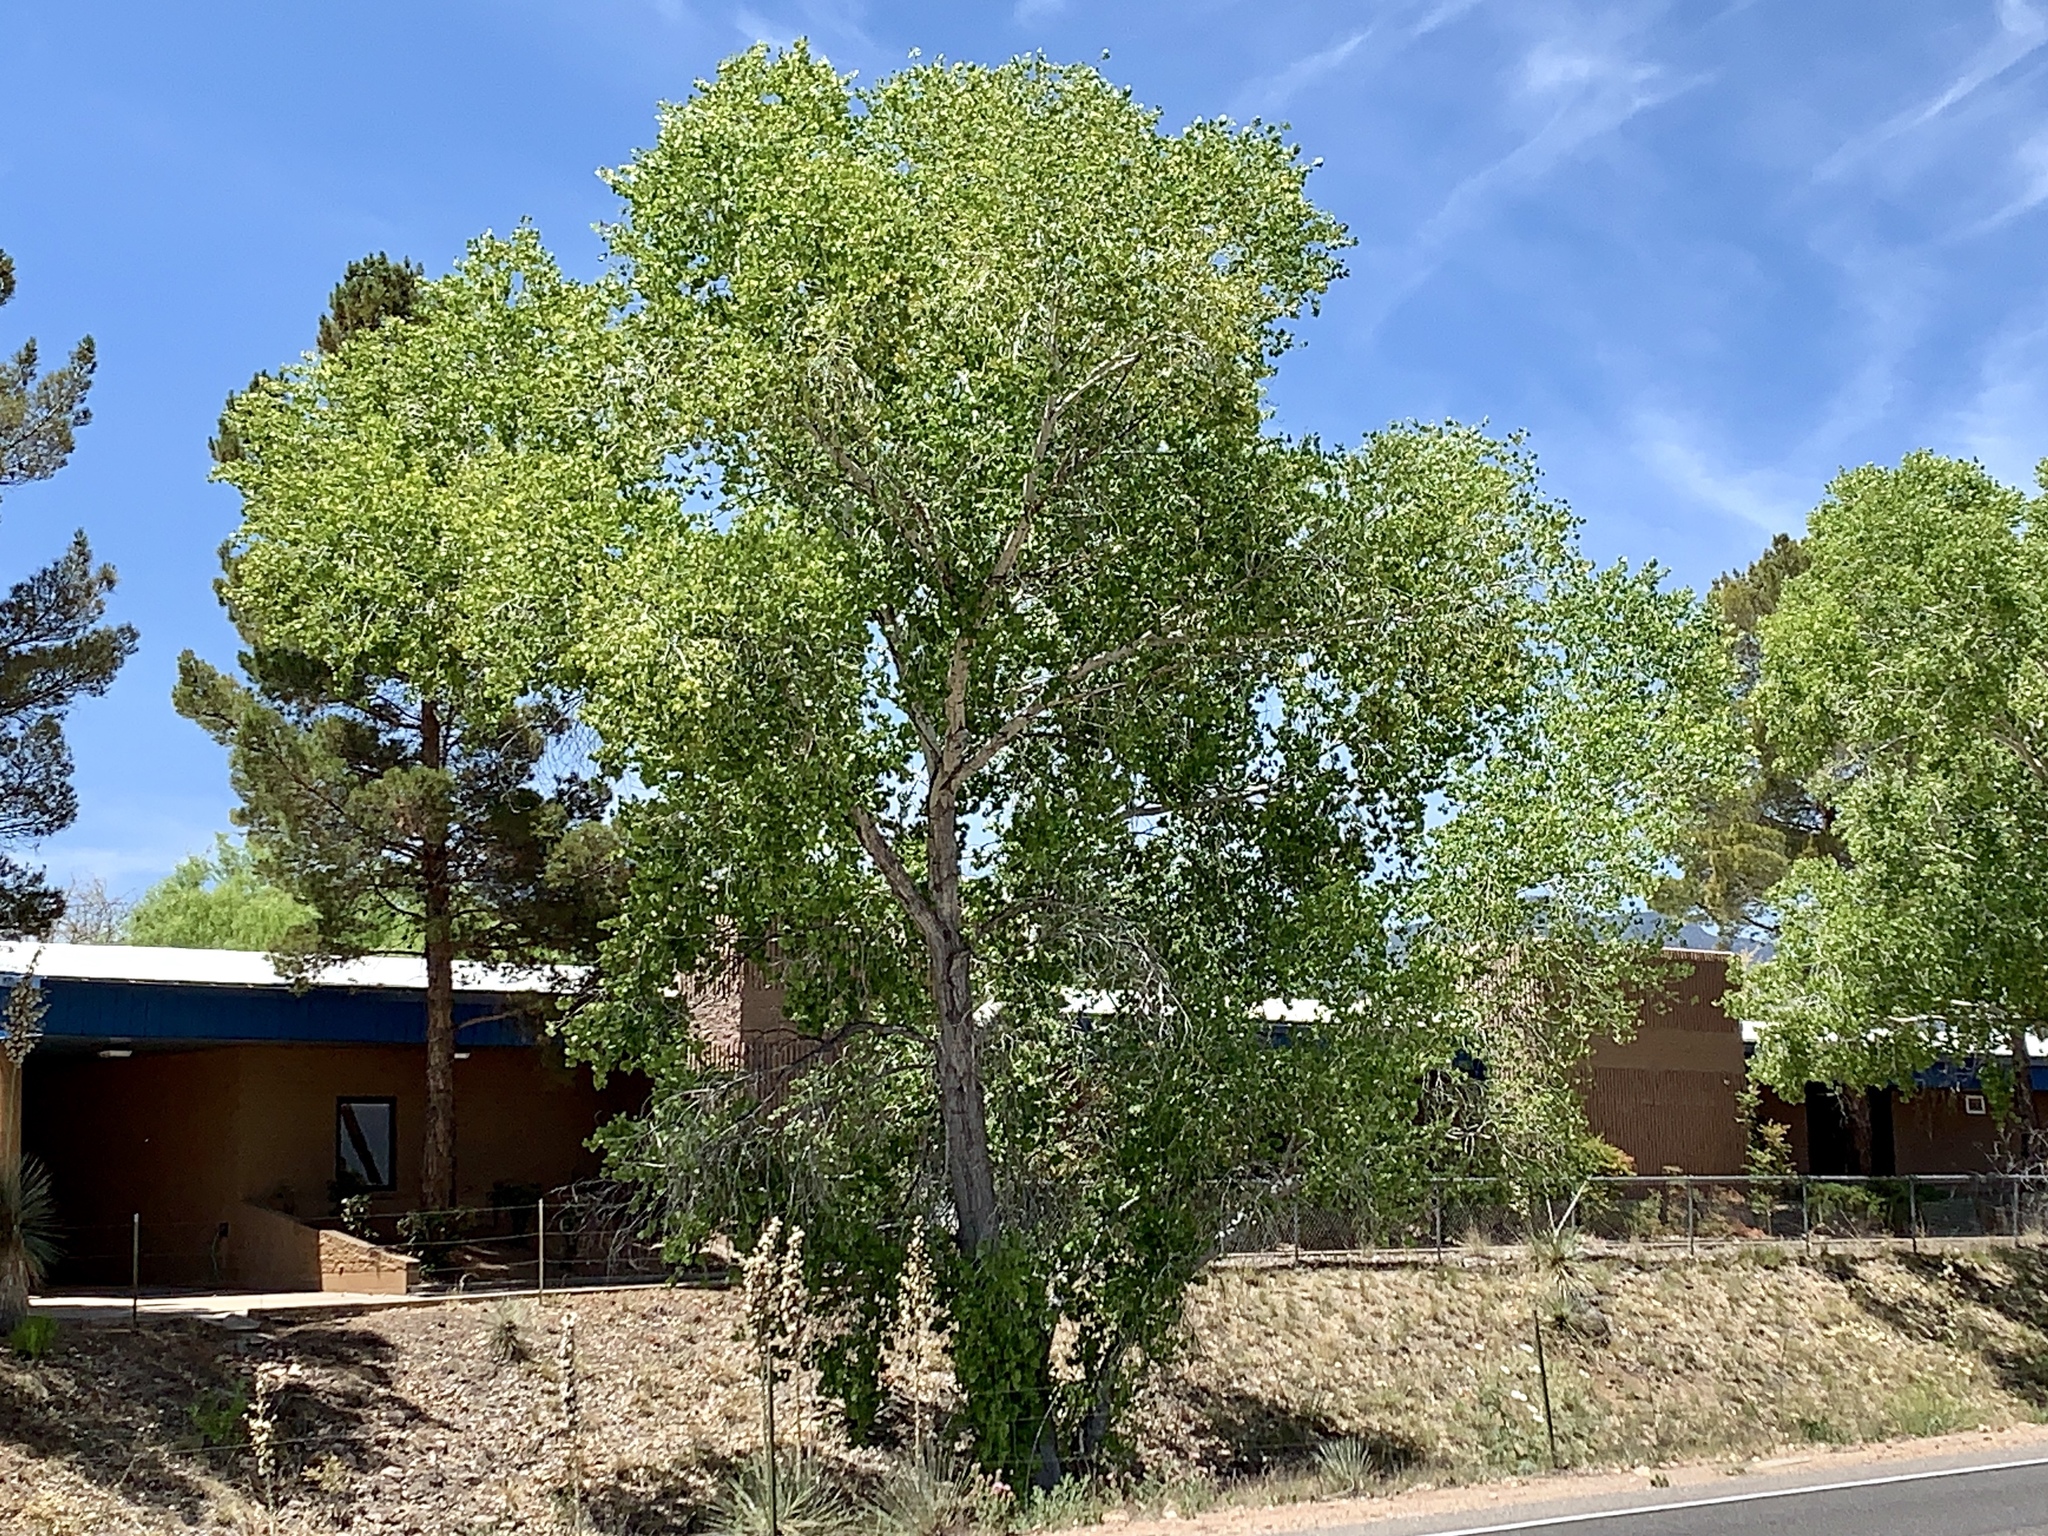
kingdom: Plantae
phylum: Tracheophyta
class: Magnoliopsida
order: Malpighiales
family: Salicaceae
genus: Populus
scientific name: Populus fremontii
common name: Fremont's cottonwood
